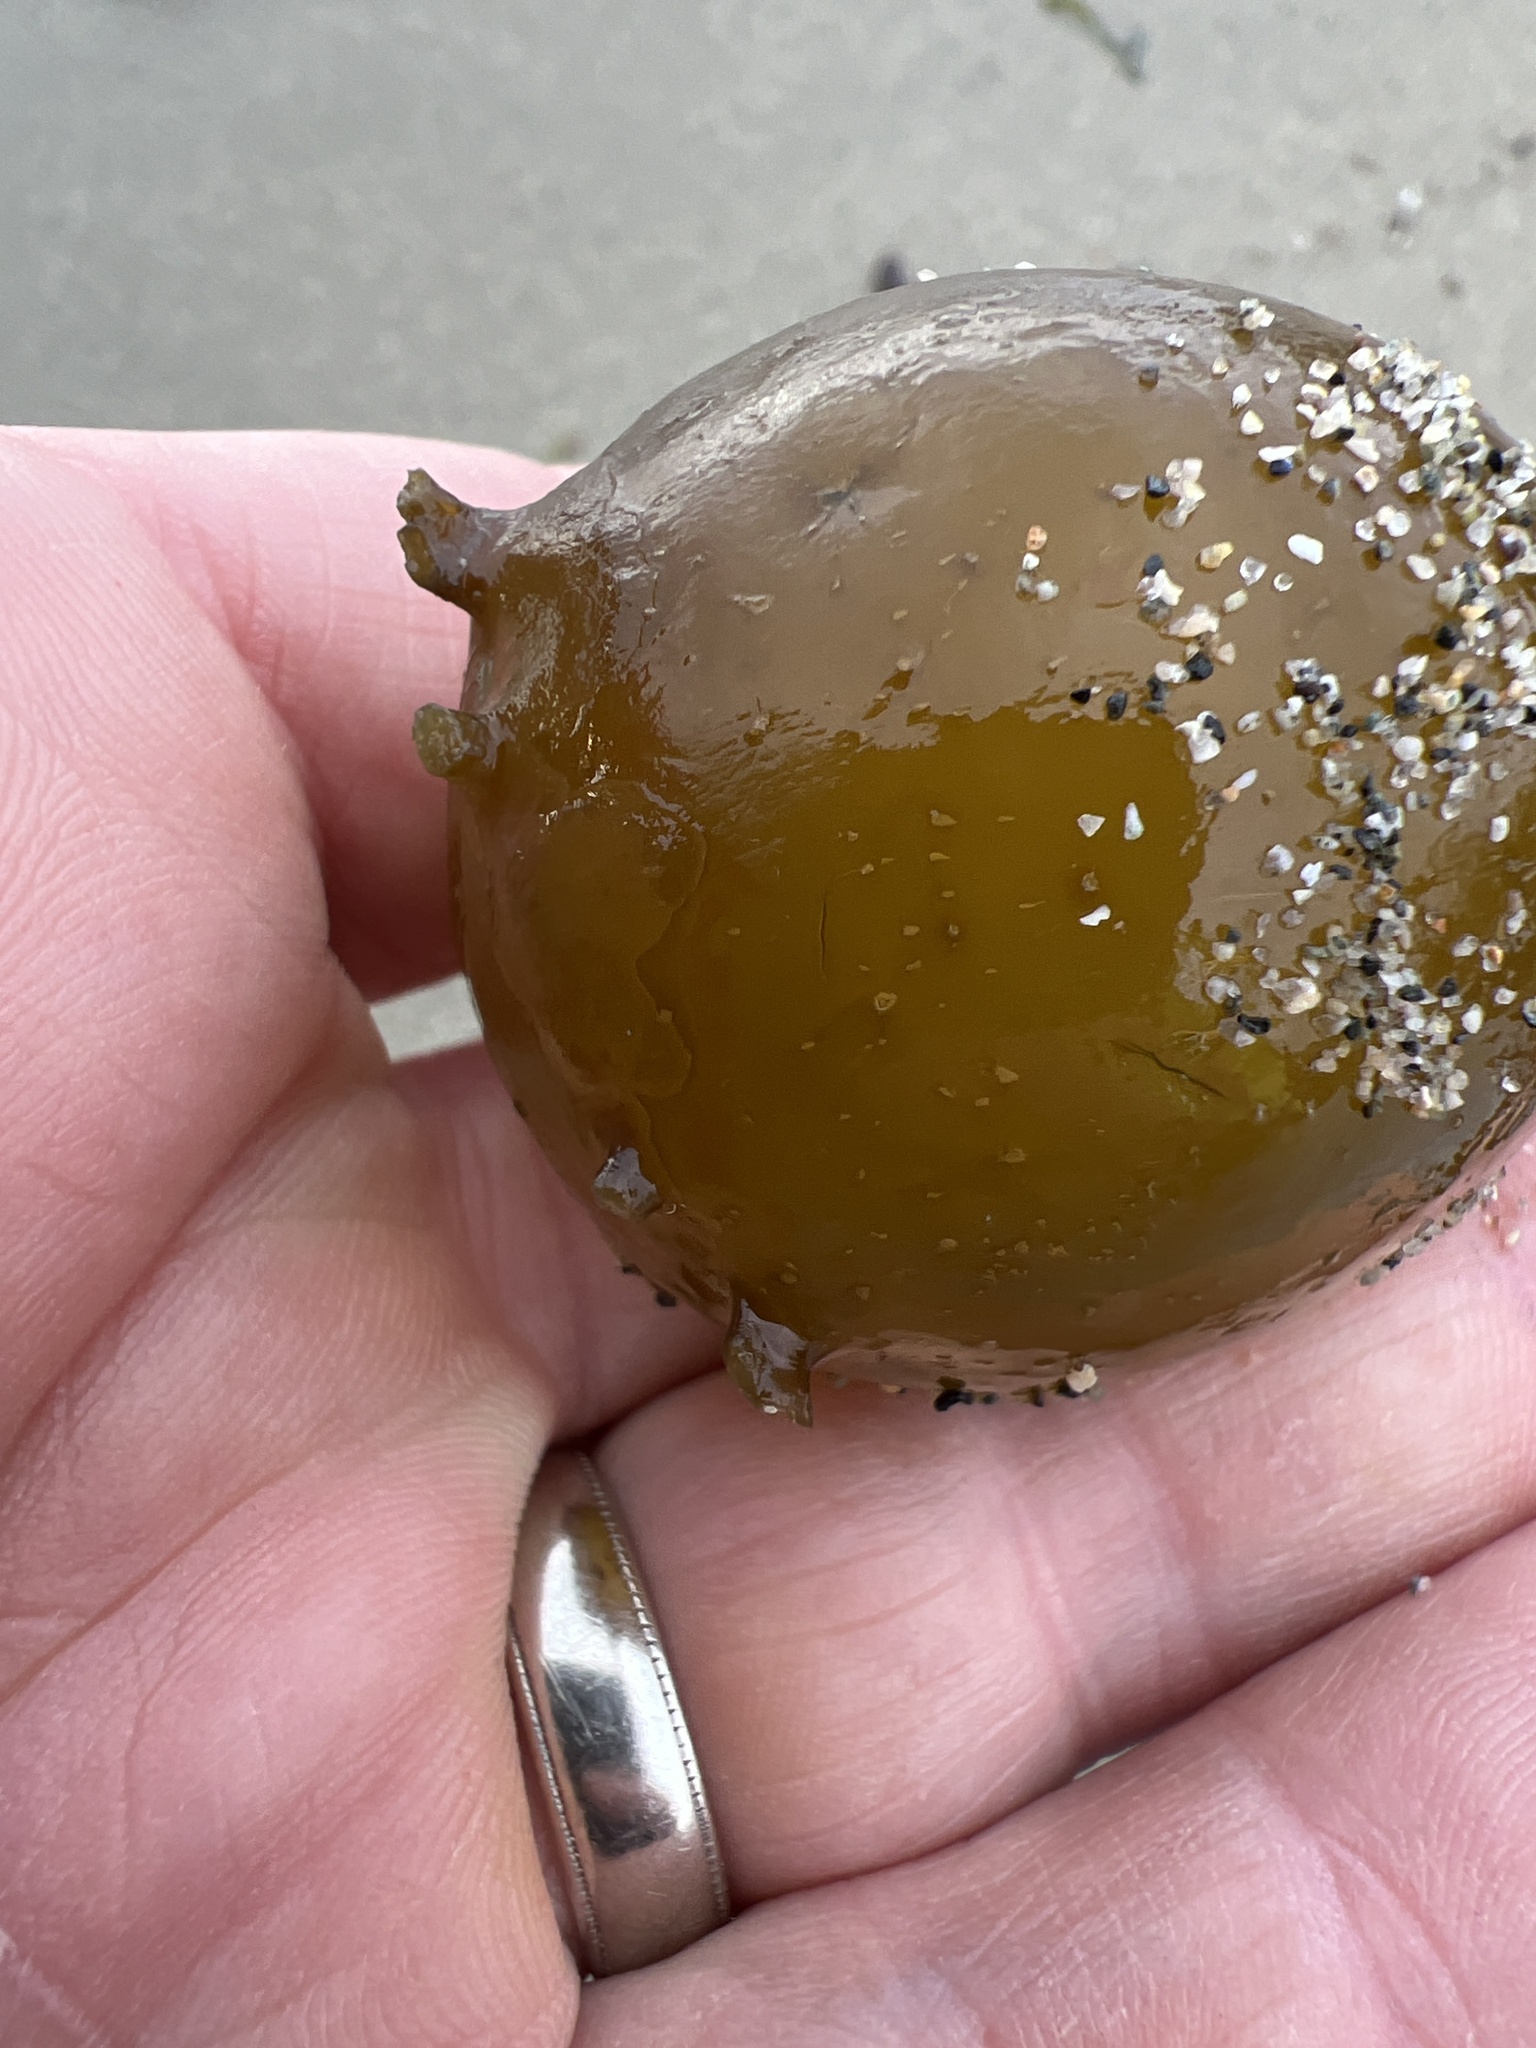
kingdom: Chromista
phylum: Ochrophyta
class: Phaeophyceae
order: Laminariales
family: Laminariaceae
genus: Nereocystis
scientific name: Nereocystis luetkeana
